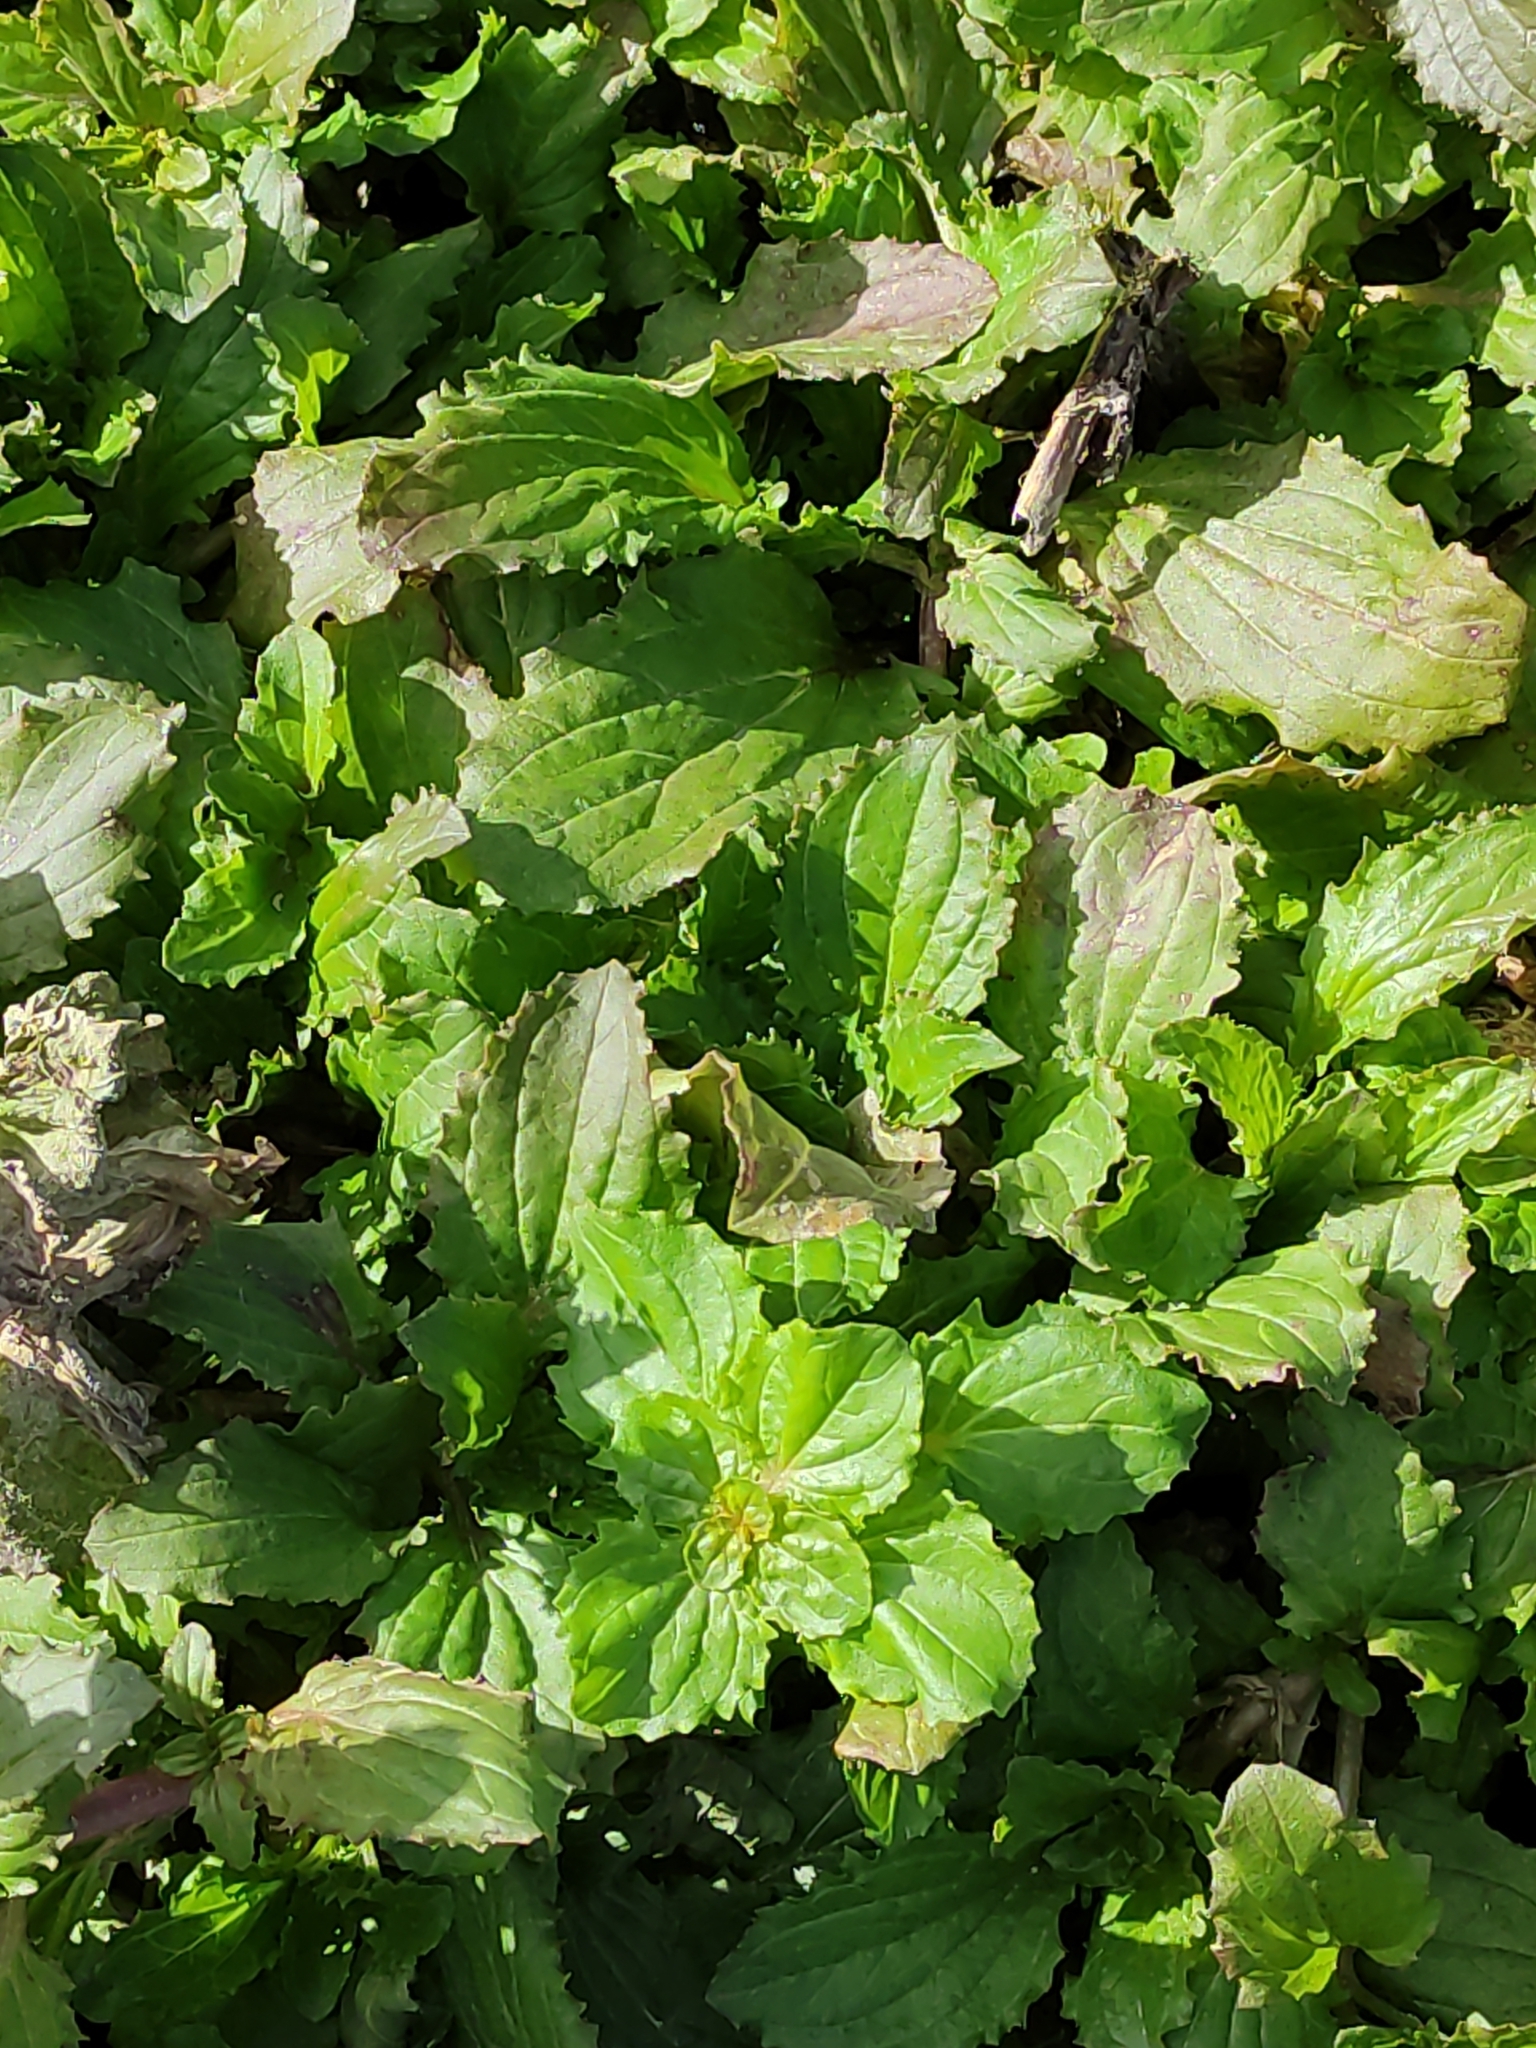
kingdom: Plantae
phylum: Tracheophyta
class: Magnoliopsida
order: Lamiales
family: Phrymaceae
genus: Erythranthe
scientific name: Erythranthe guttata
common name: Monkeyflower
